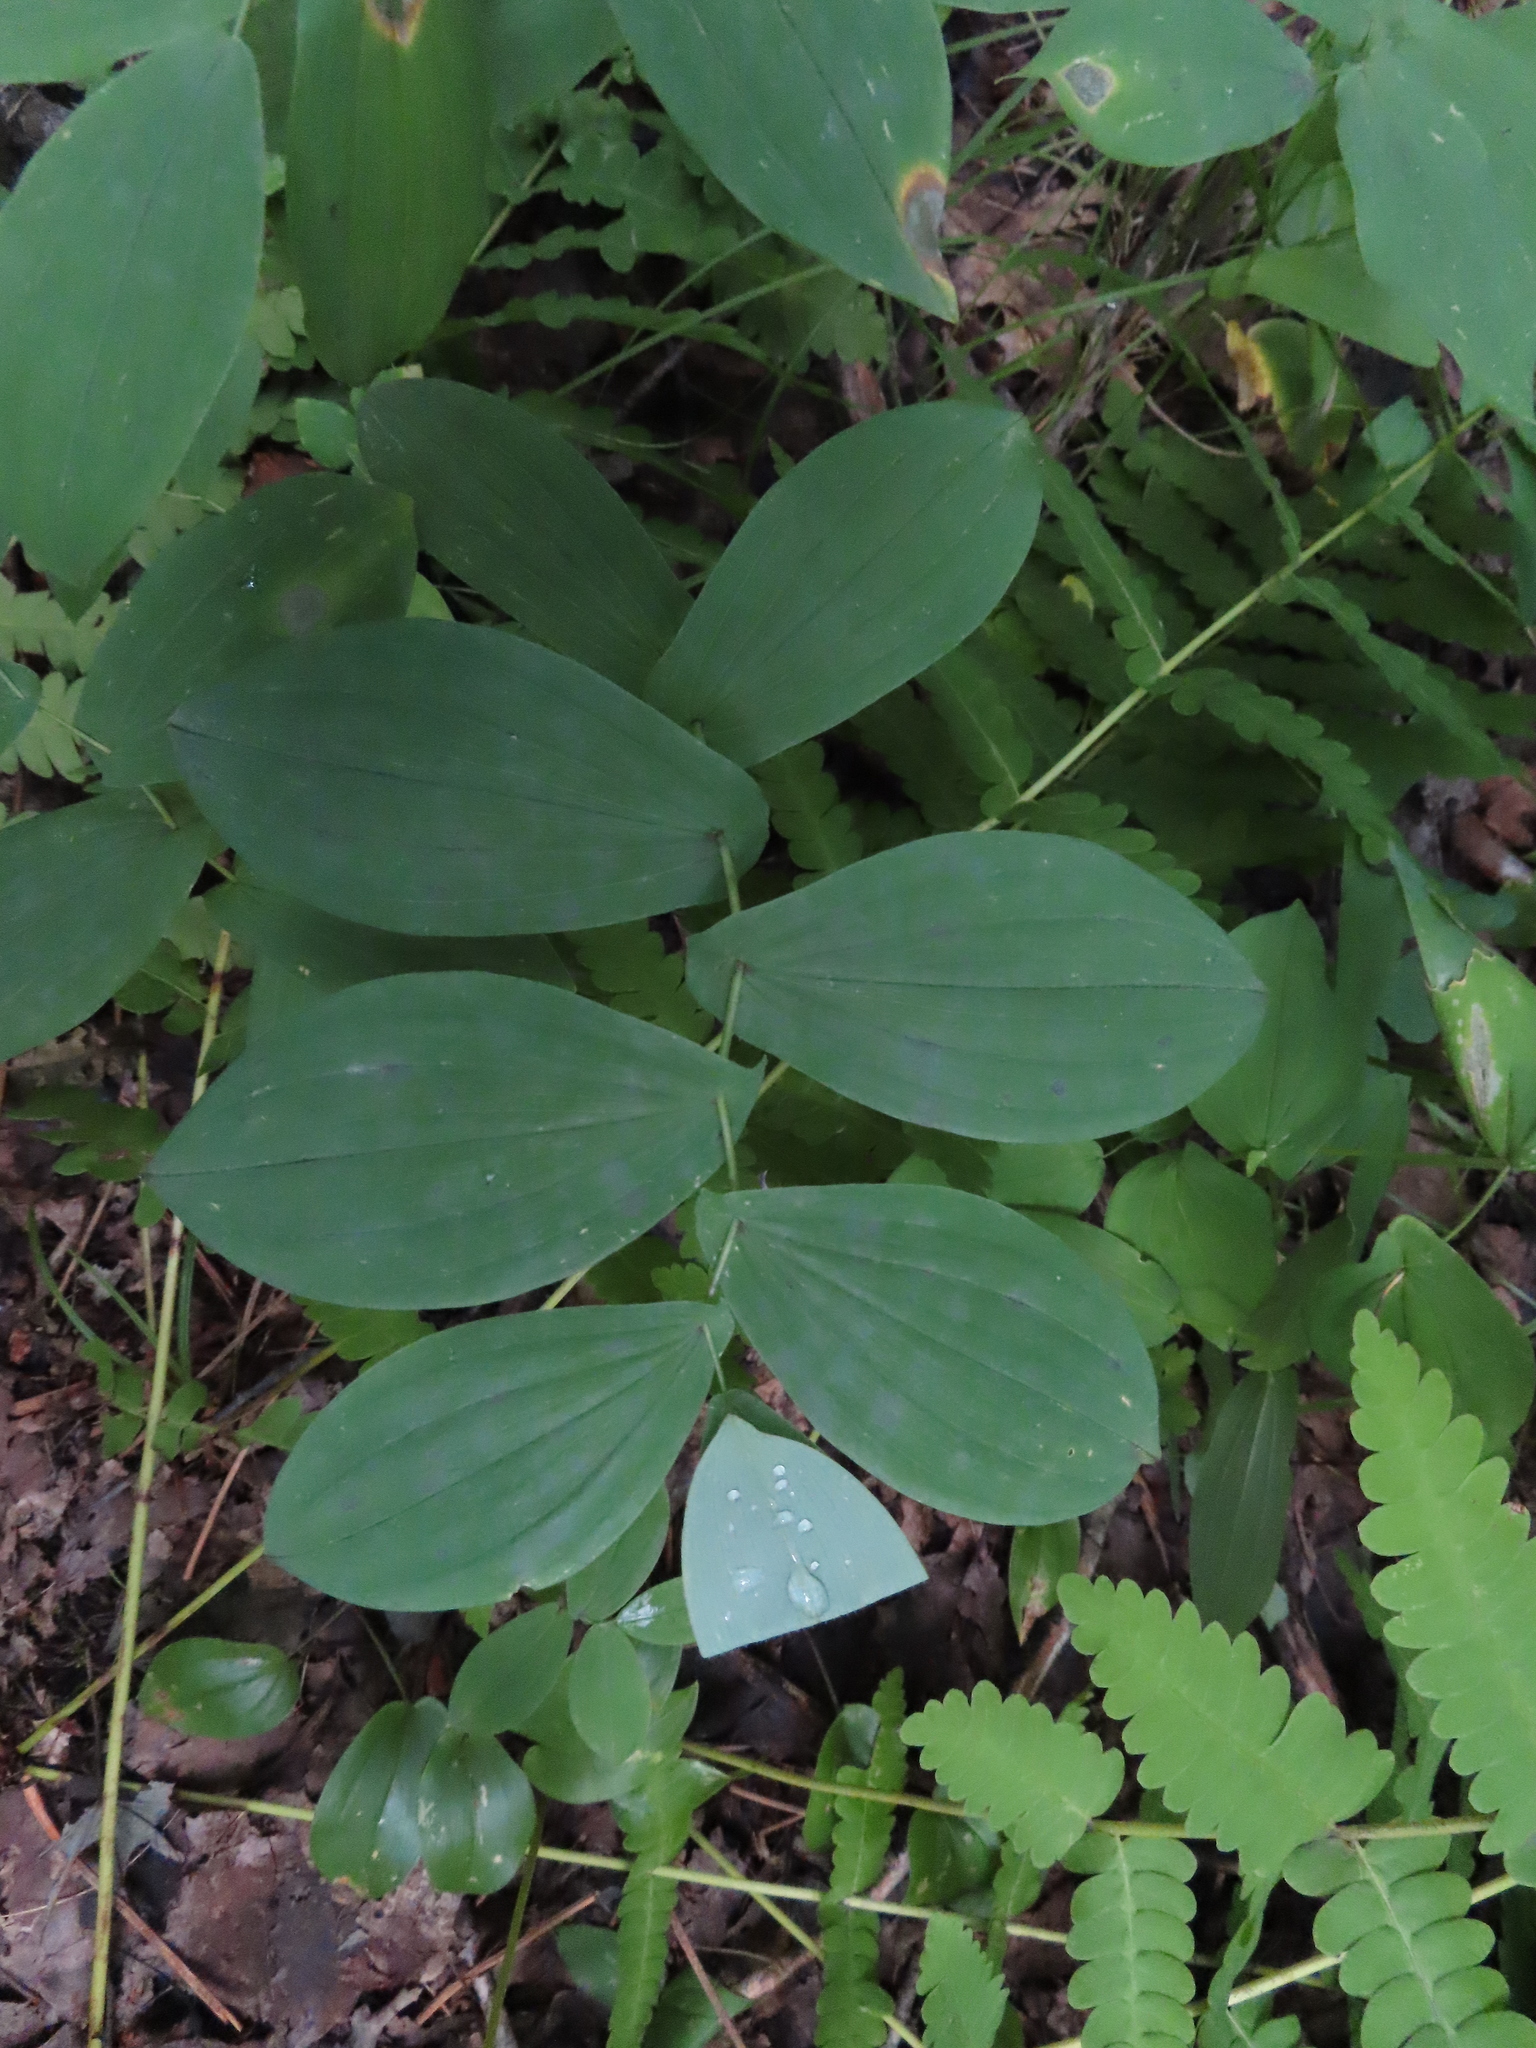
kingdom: Plantae
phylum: Tracheophyta
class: Liliopsida
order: Liliales
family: Colchicaceae
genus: Uvularia
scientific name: Uvularia grandiflora
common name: Bellwort
